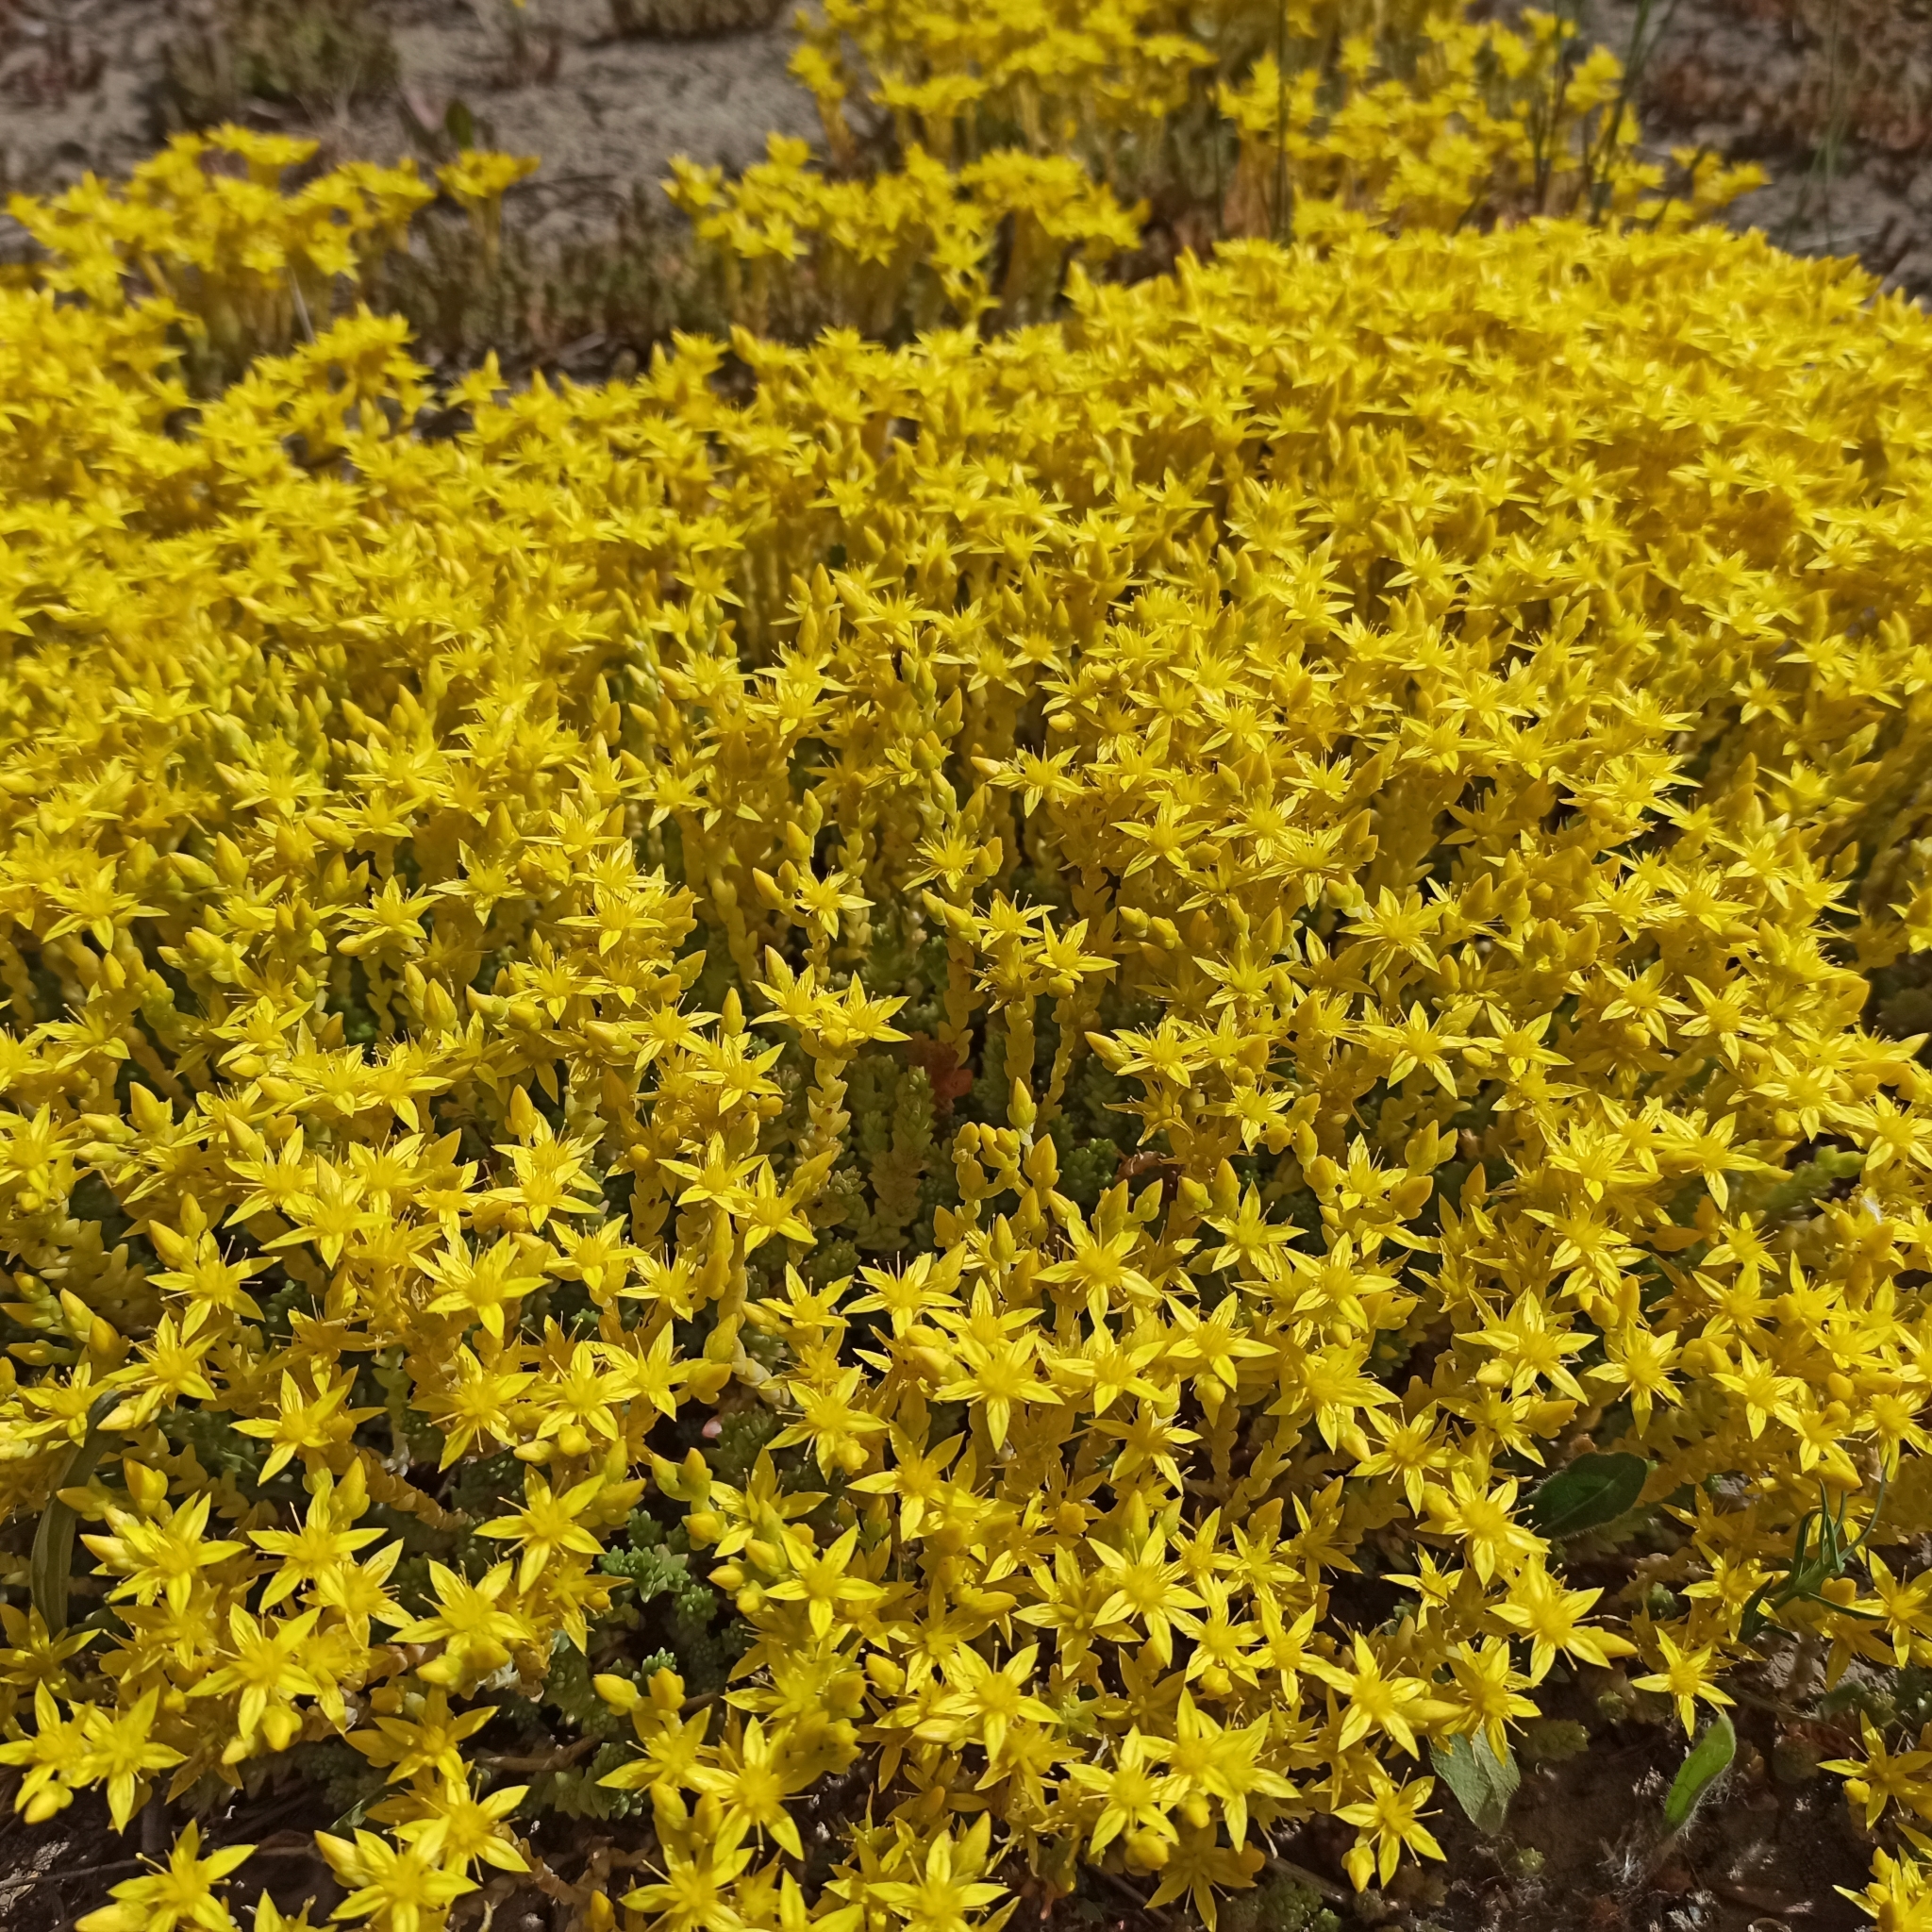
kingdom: Plantae
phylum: Tracheophyta
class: Magnoliopsida
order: Saxifragales
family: Crassulaceae
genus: Sedum
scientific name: Sedum acre
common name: Biting stonecrop
